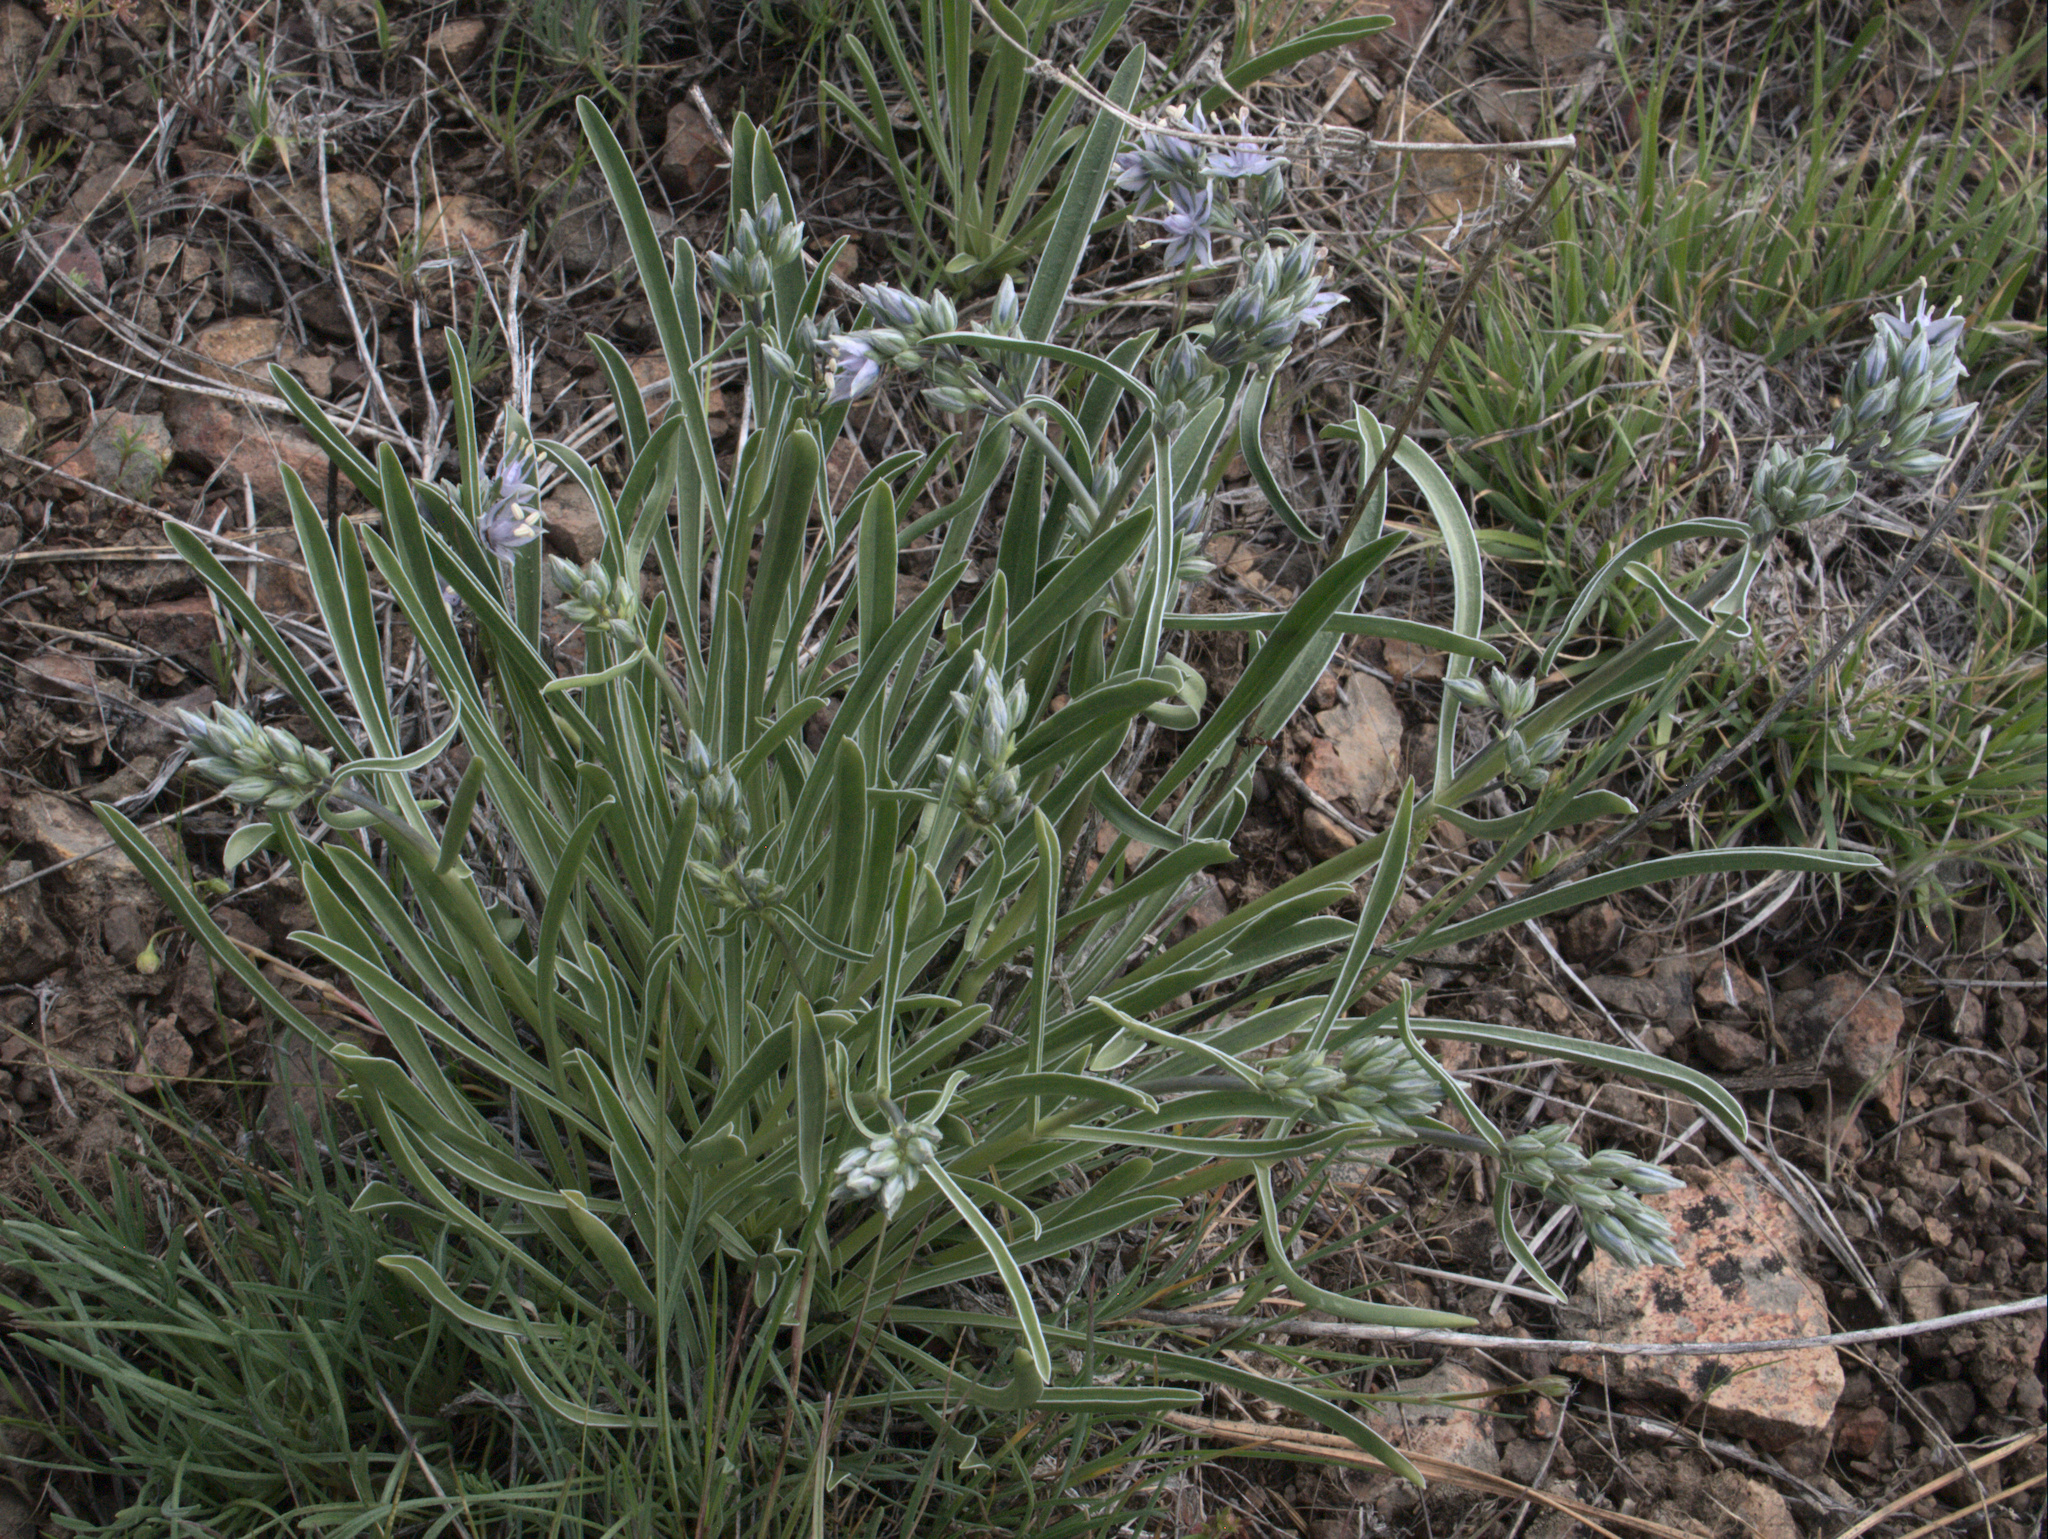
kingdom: Plantae
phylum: Tracheophyta
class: Magnoliopsida
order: Gentianales
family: Gentianaceae
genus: Frasera
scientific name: Frasera albicaulis
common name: Cusick's frasera
